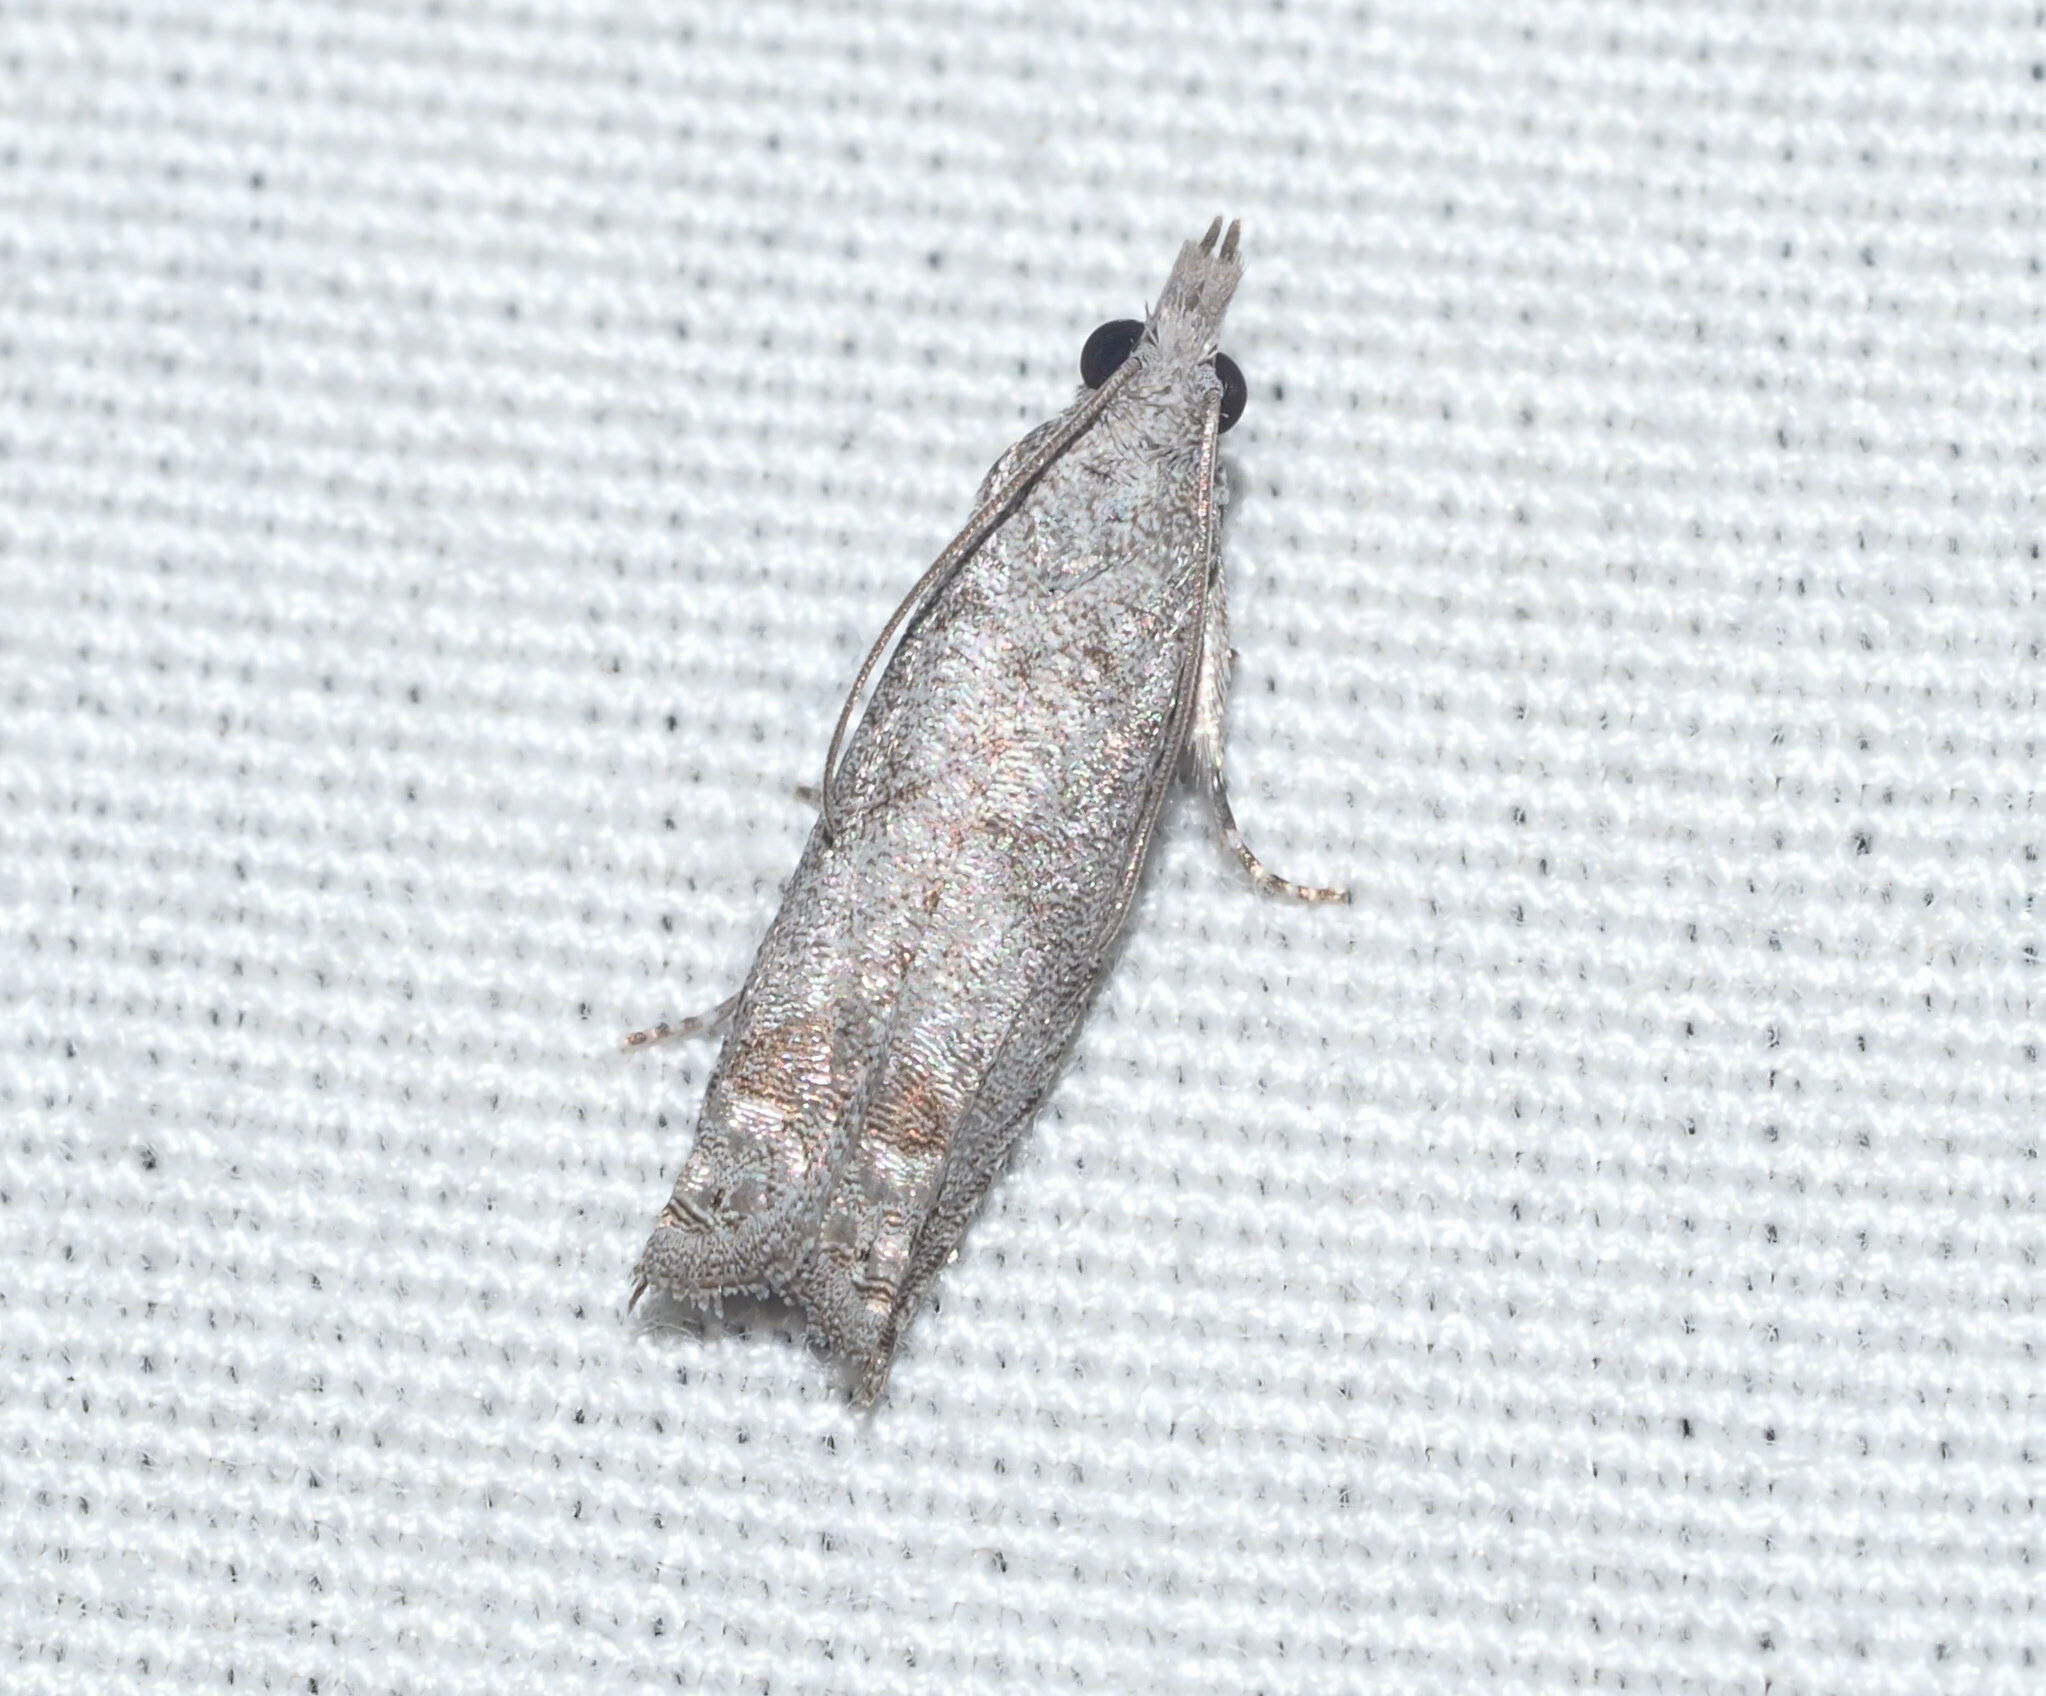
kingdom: Animalia
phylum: Arthropoda
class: Insecta
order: Lepidoptera
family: Tortricidae
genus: Eccoptocera
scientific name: Eccoptocera
